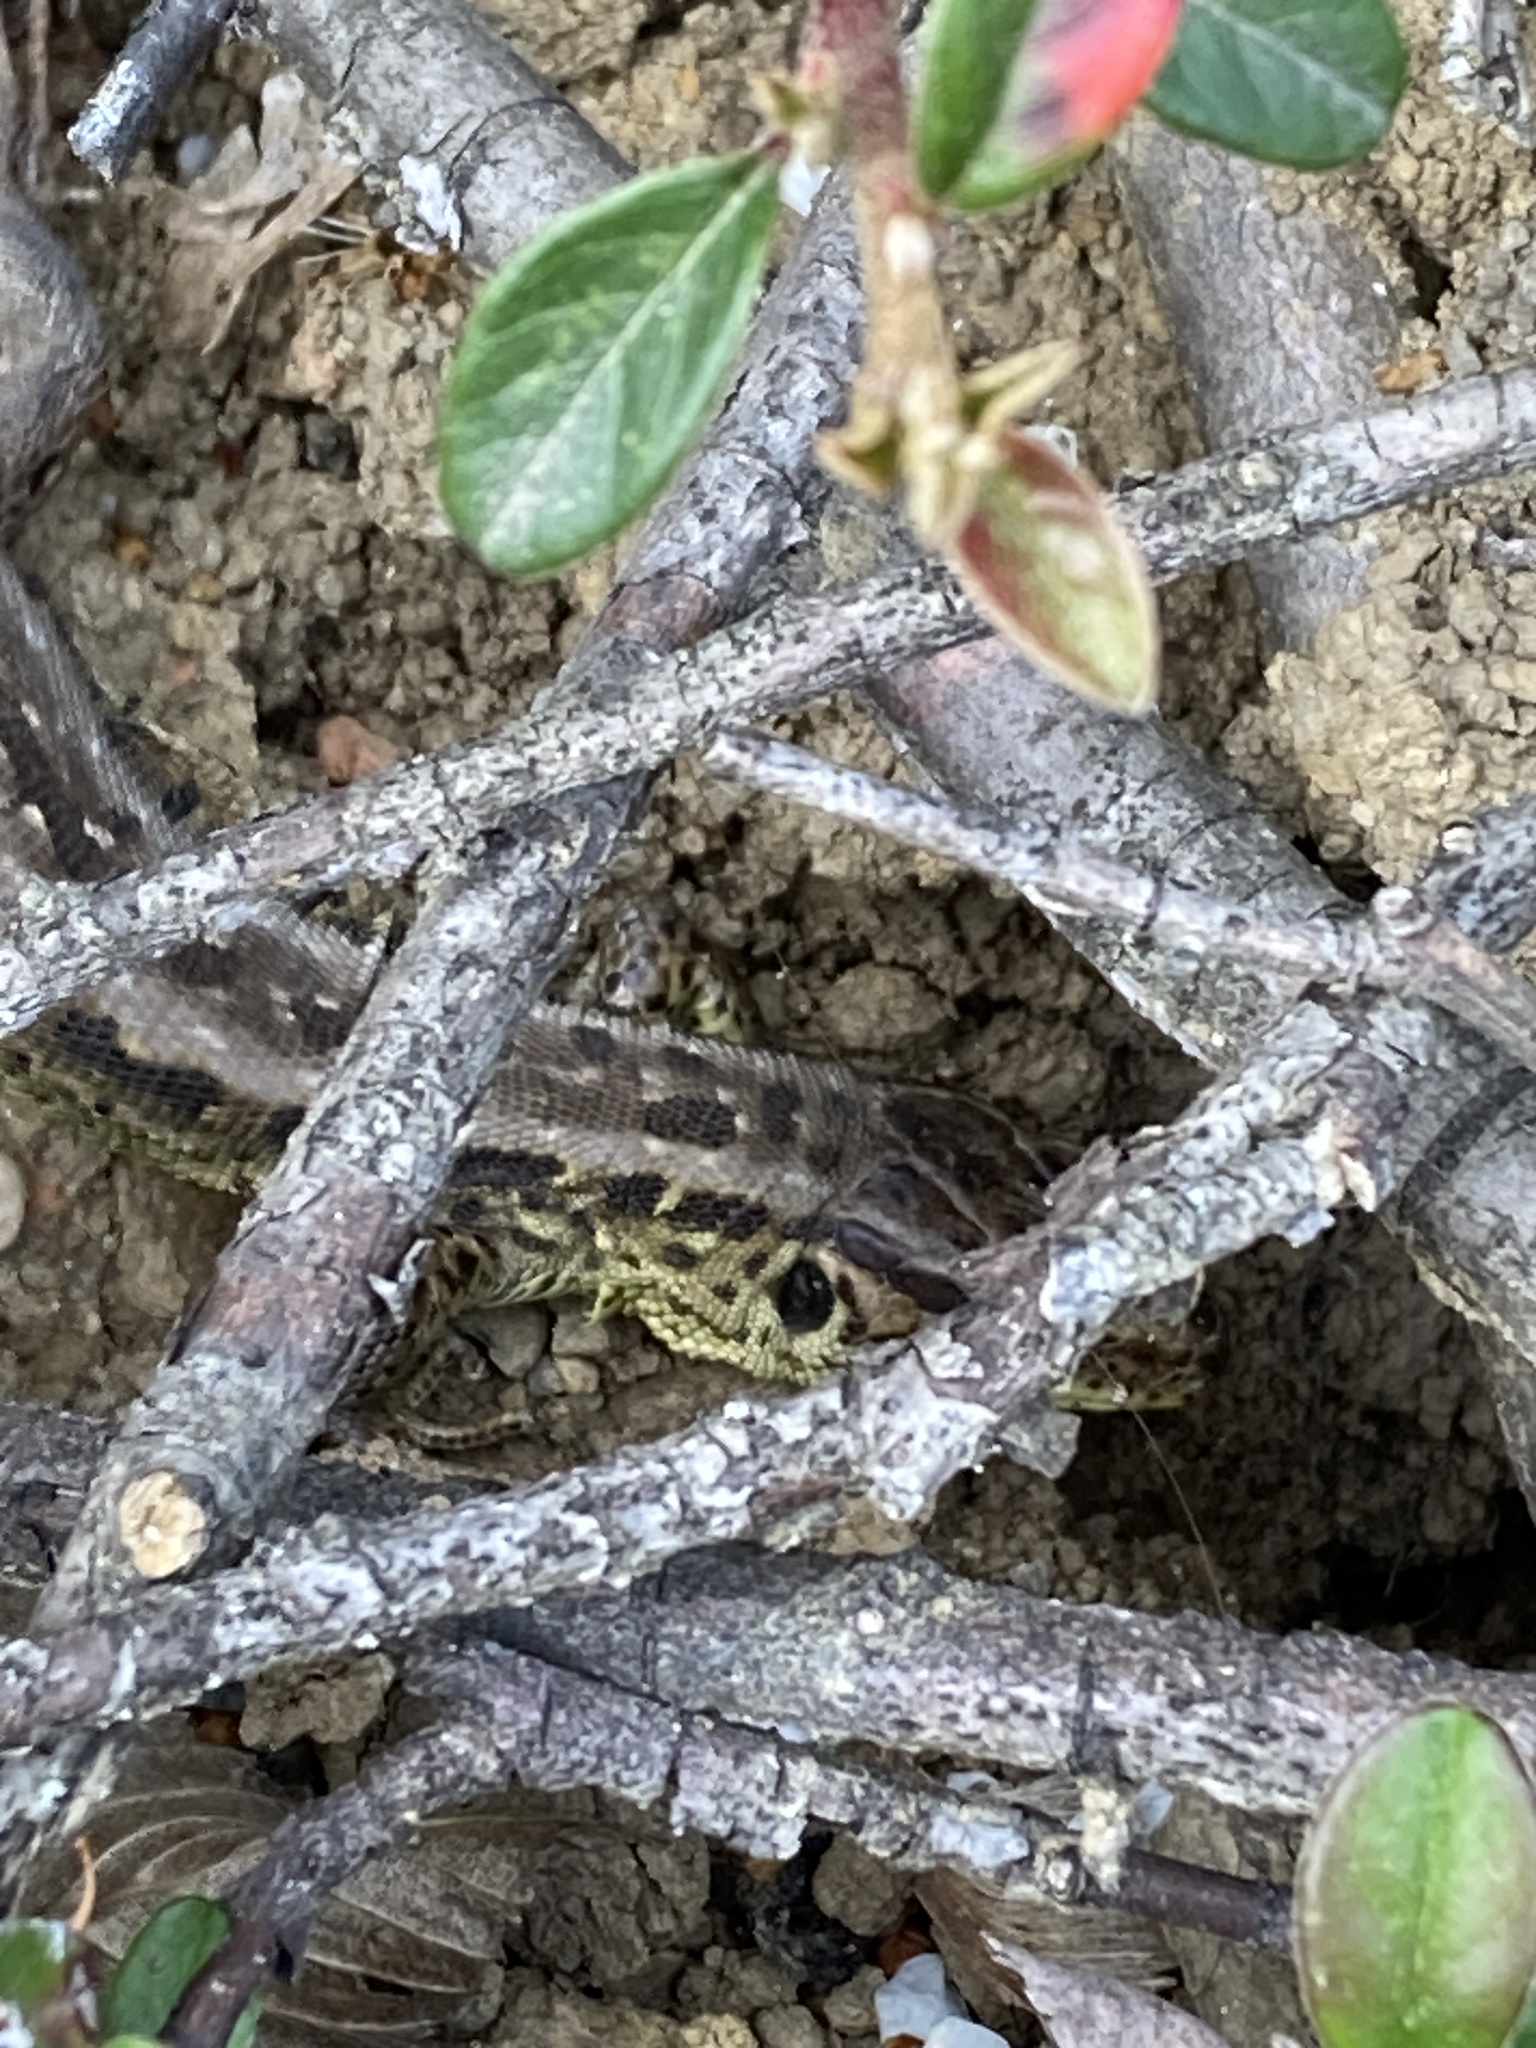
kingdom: Animalia
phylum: Chordata
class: Squamata
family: Lacertidae
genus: Lacerta
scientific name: Lacerta agilis
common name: Sand lizard
